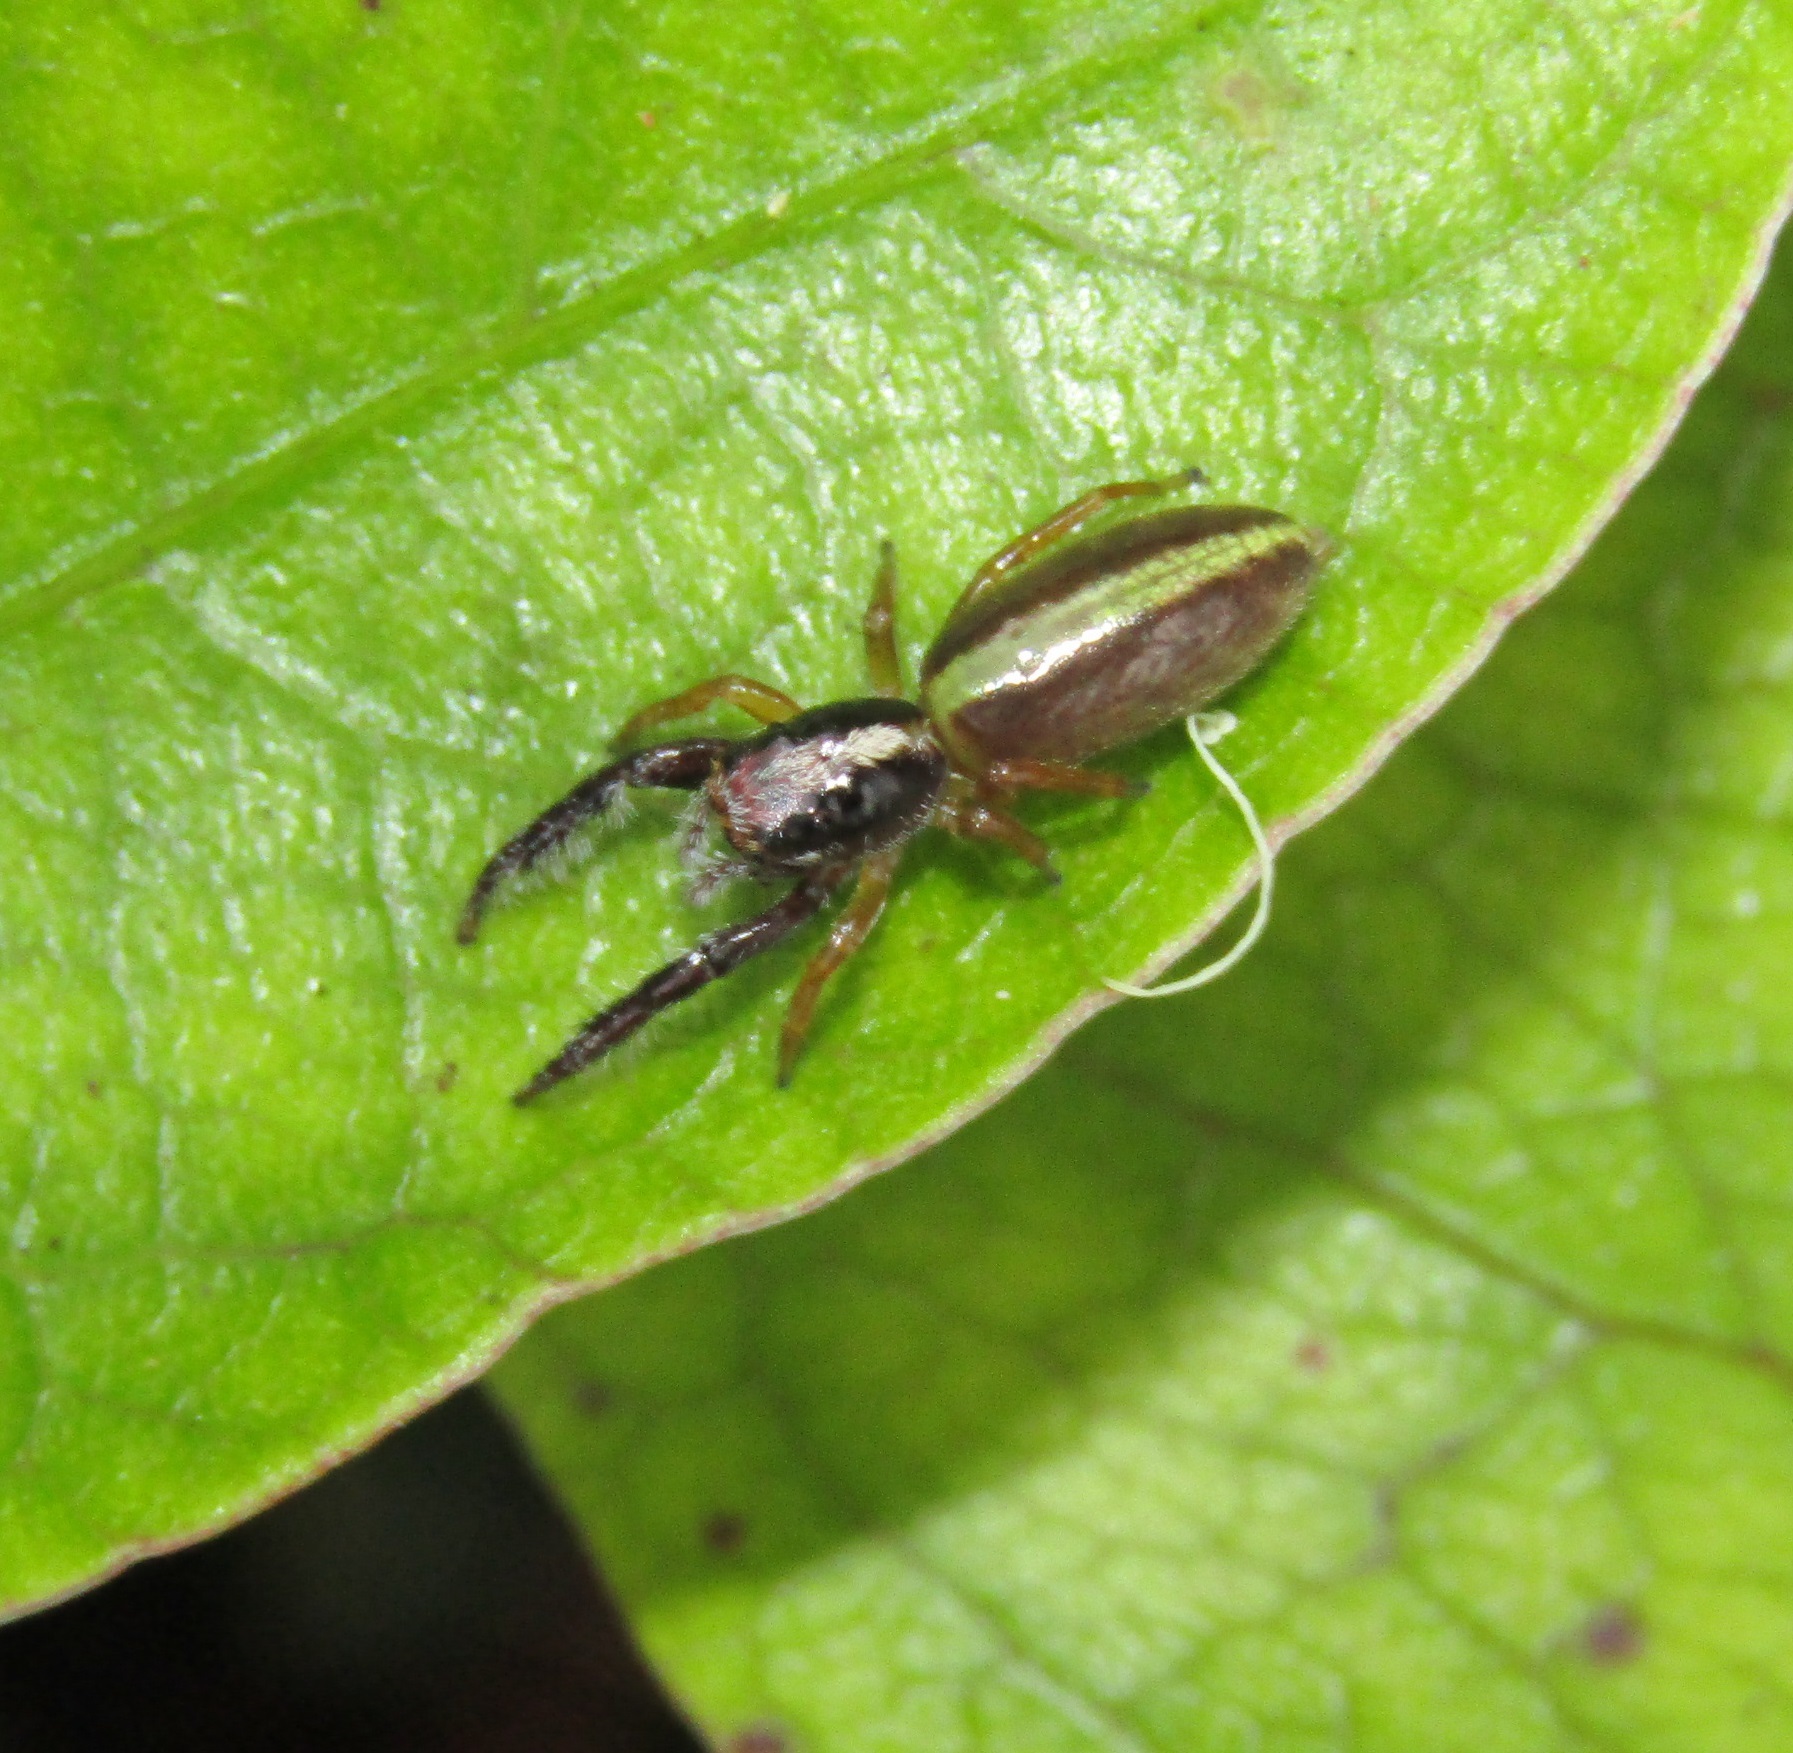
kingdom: Animalia
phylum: Arthropoda
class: Arachnida
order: Araneae
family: Salticidae
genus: Trite
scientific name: Trite planiceps
